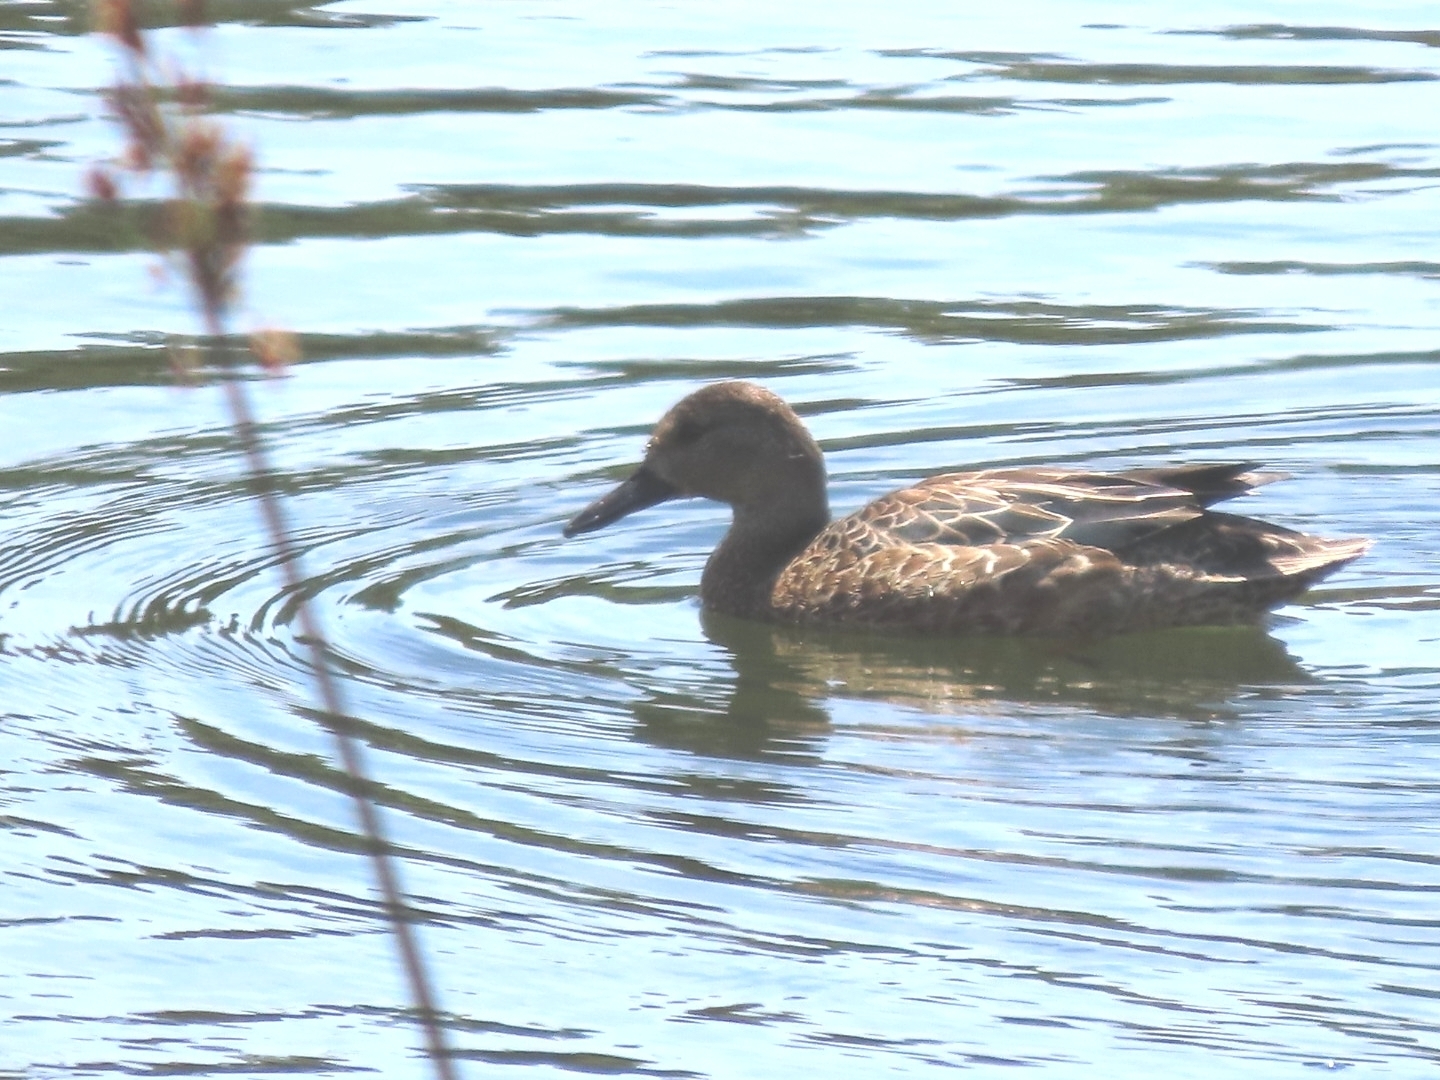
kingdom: Animalia
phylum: Chordata
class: Aves
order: Anseriformes
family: Anatidae
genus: Spatula
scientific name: Spatula discors
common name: Blue-winged teal
